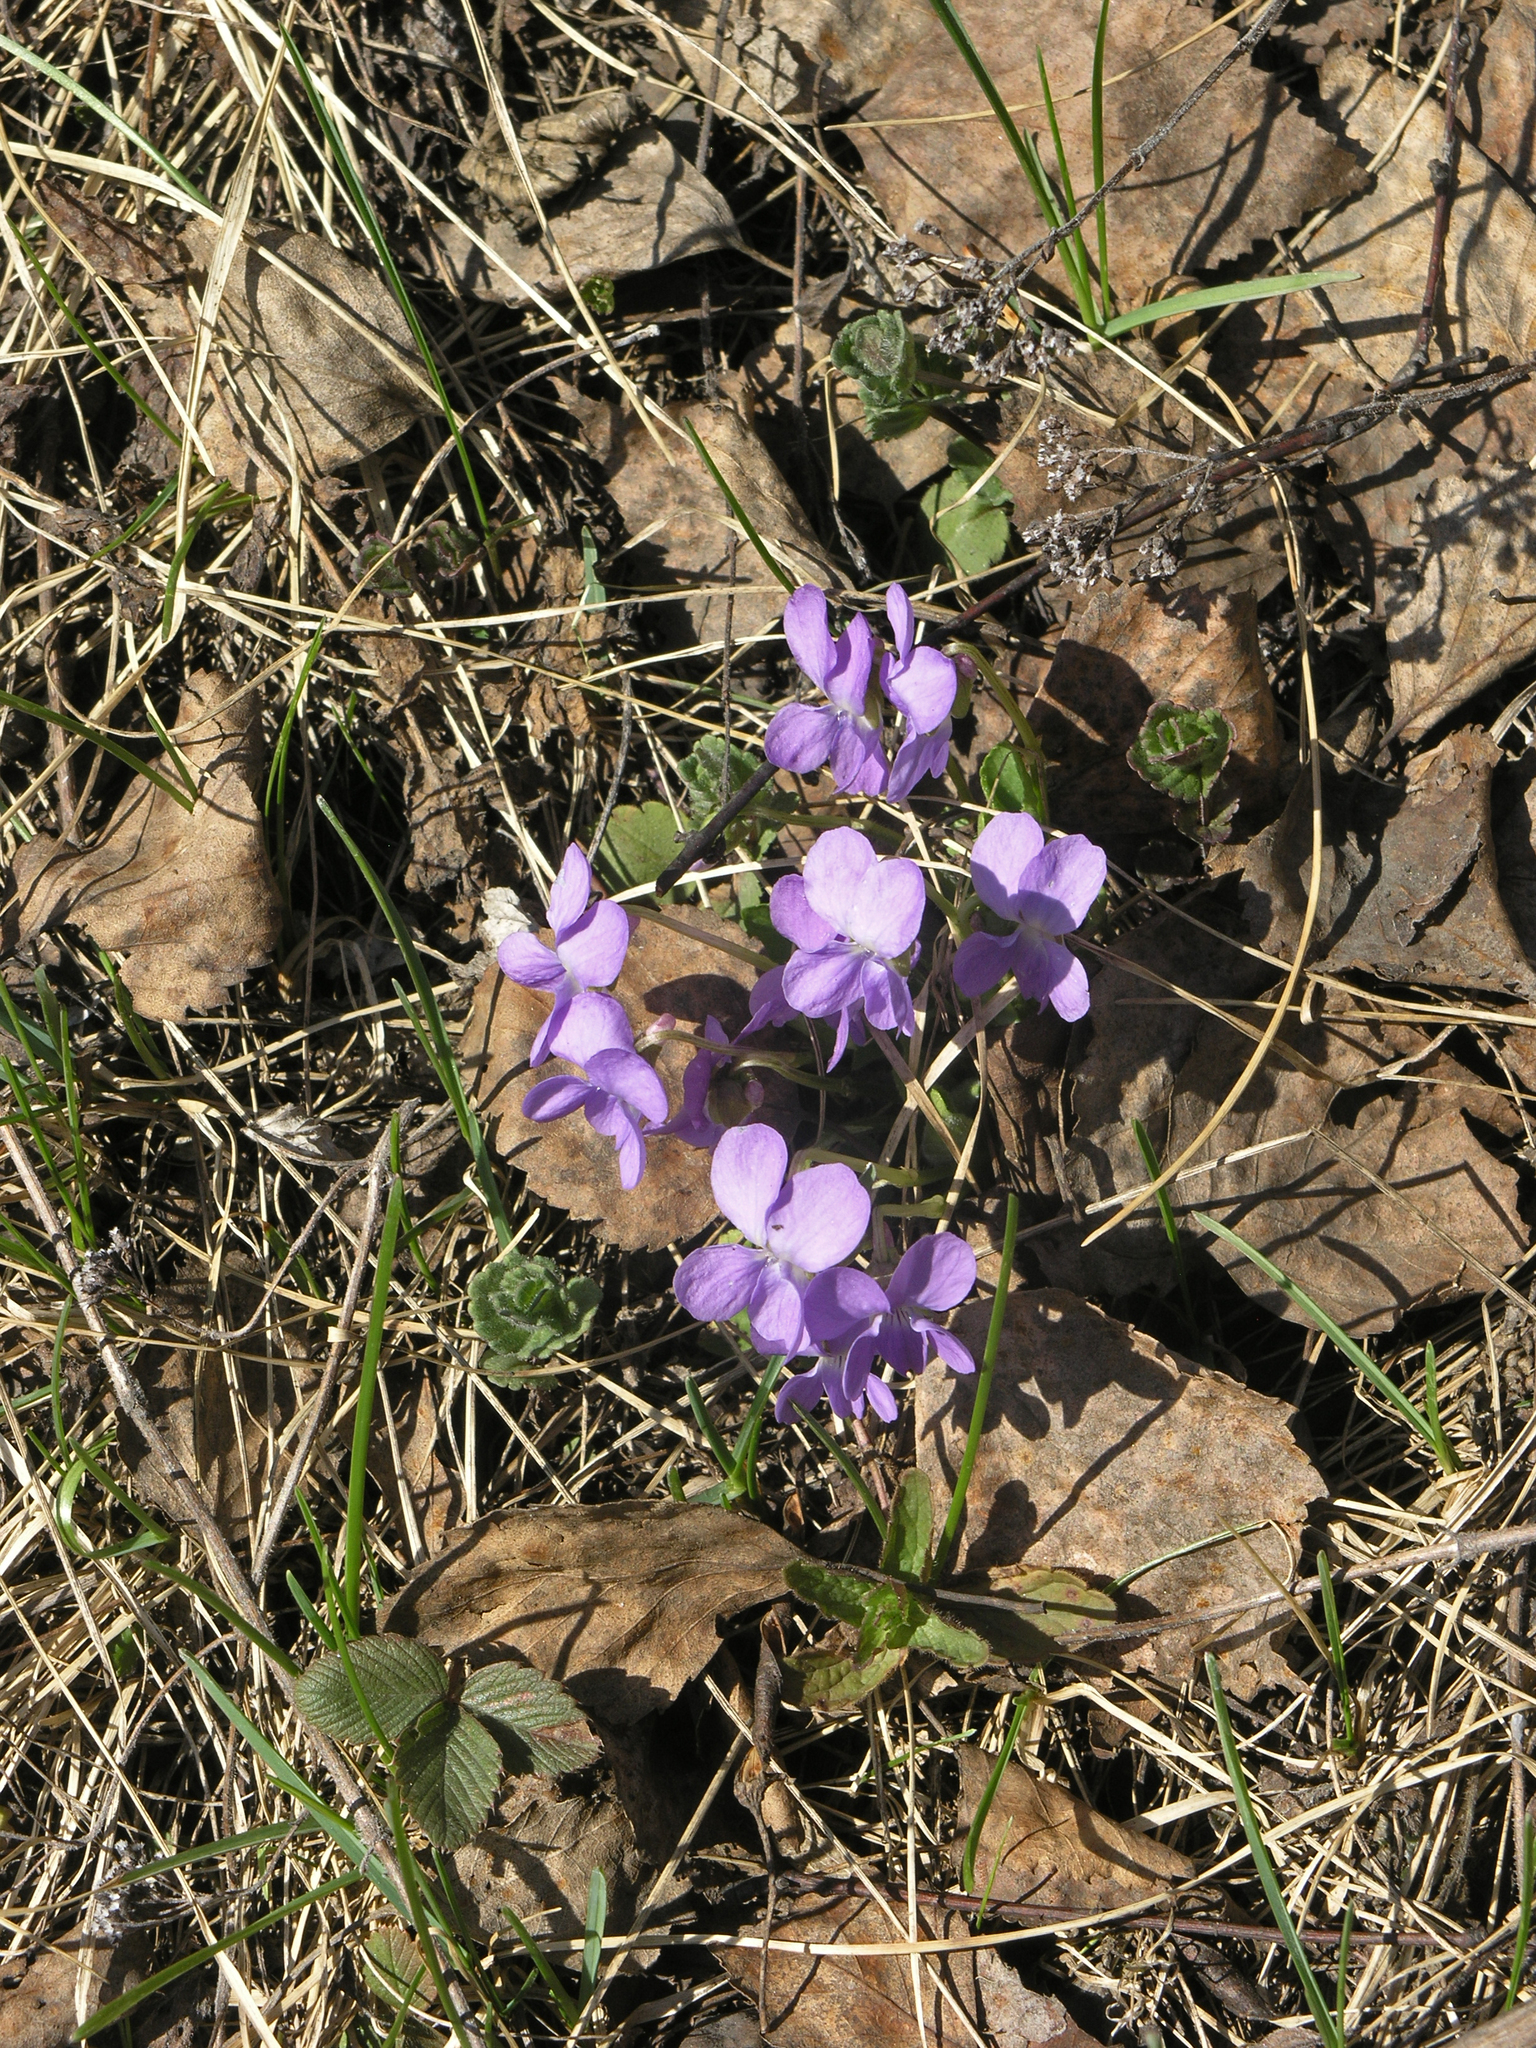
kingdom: Plantae
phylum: Tracheophyta
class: Magnoliopsida
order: Malpighiales
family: Violaceae
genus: Viola
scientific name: Viola hirta
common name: Hairy violet
